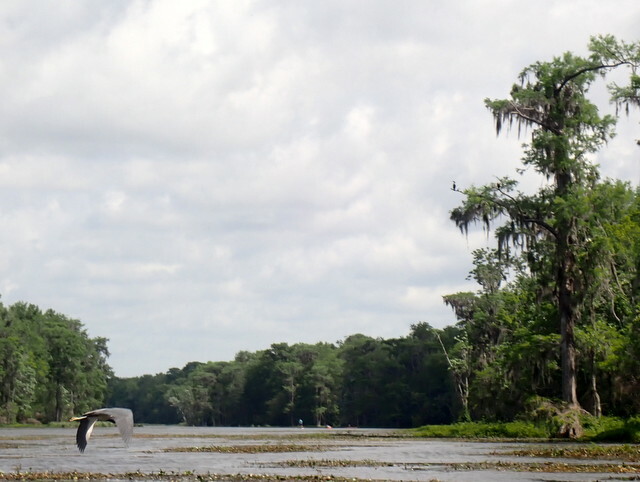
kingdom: Animalia
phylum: Chordata
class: Aves
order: Pelecaniformes
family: Ardeidae
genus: Egretta
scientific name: Egretta tricolor
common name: Tricolored heron
